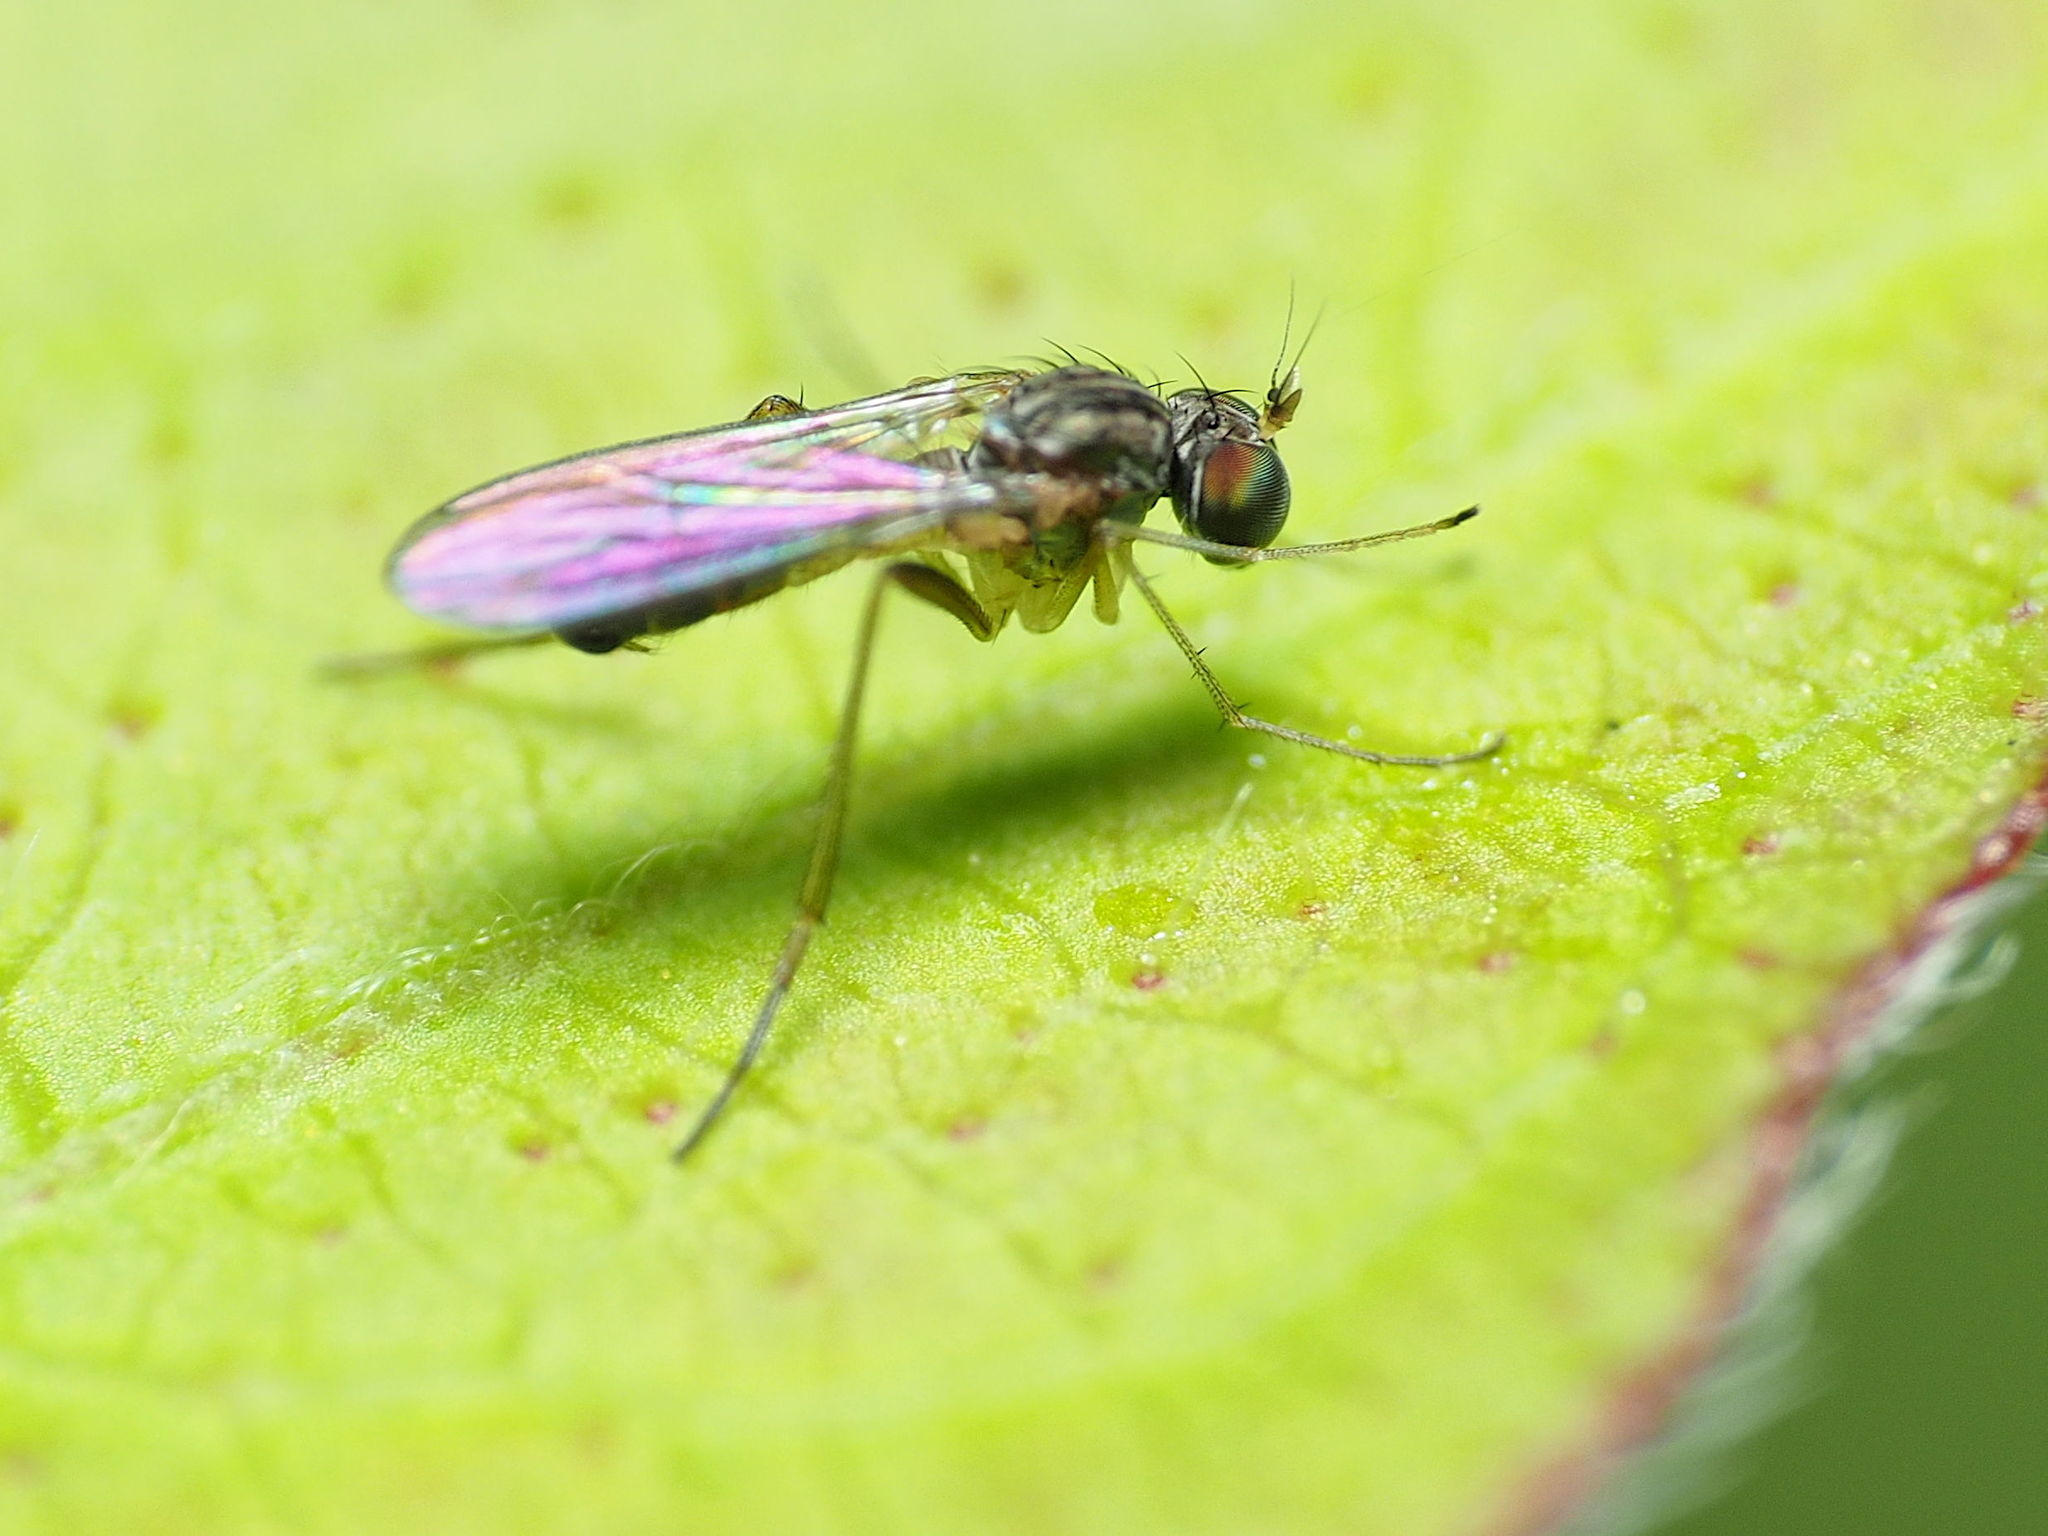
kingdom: Animalia
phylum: Arthropoda
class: Insecta
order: Diptera
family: Dolichopodidae
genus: Sympycnus
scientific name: Sympycnus lineatus
